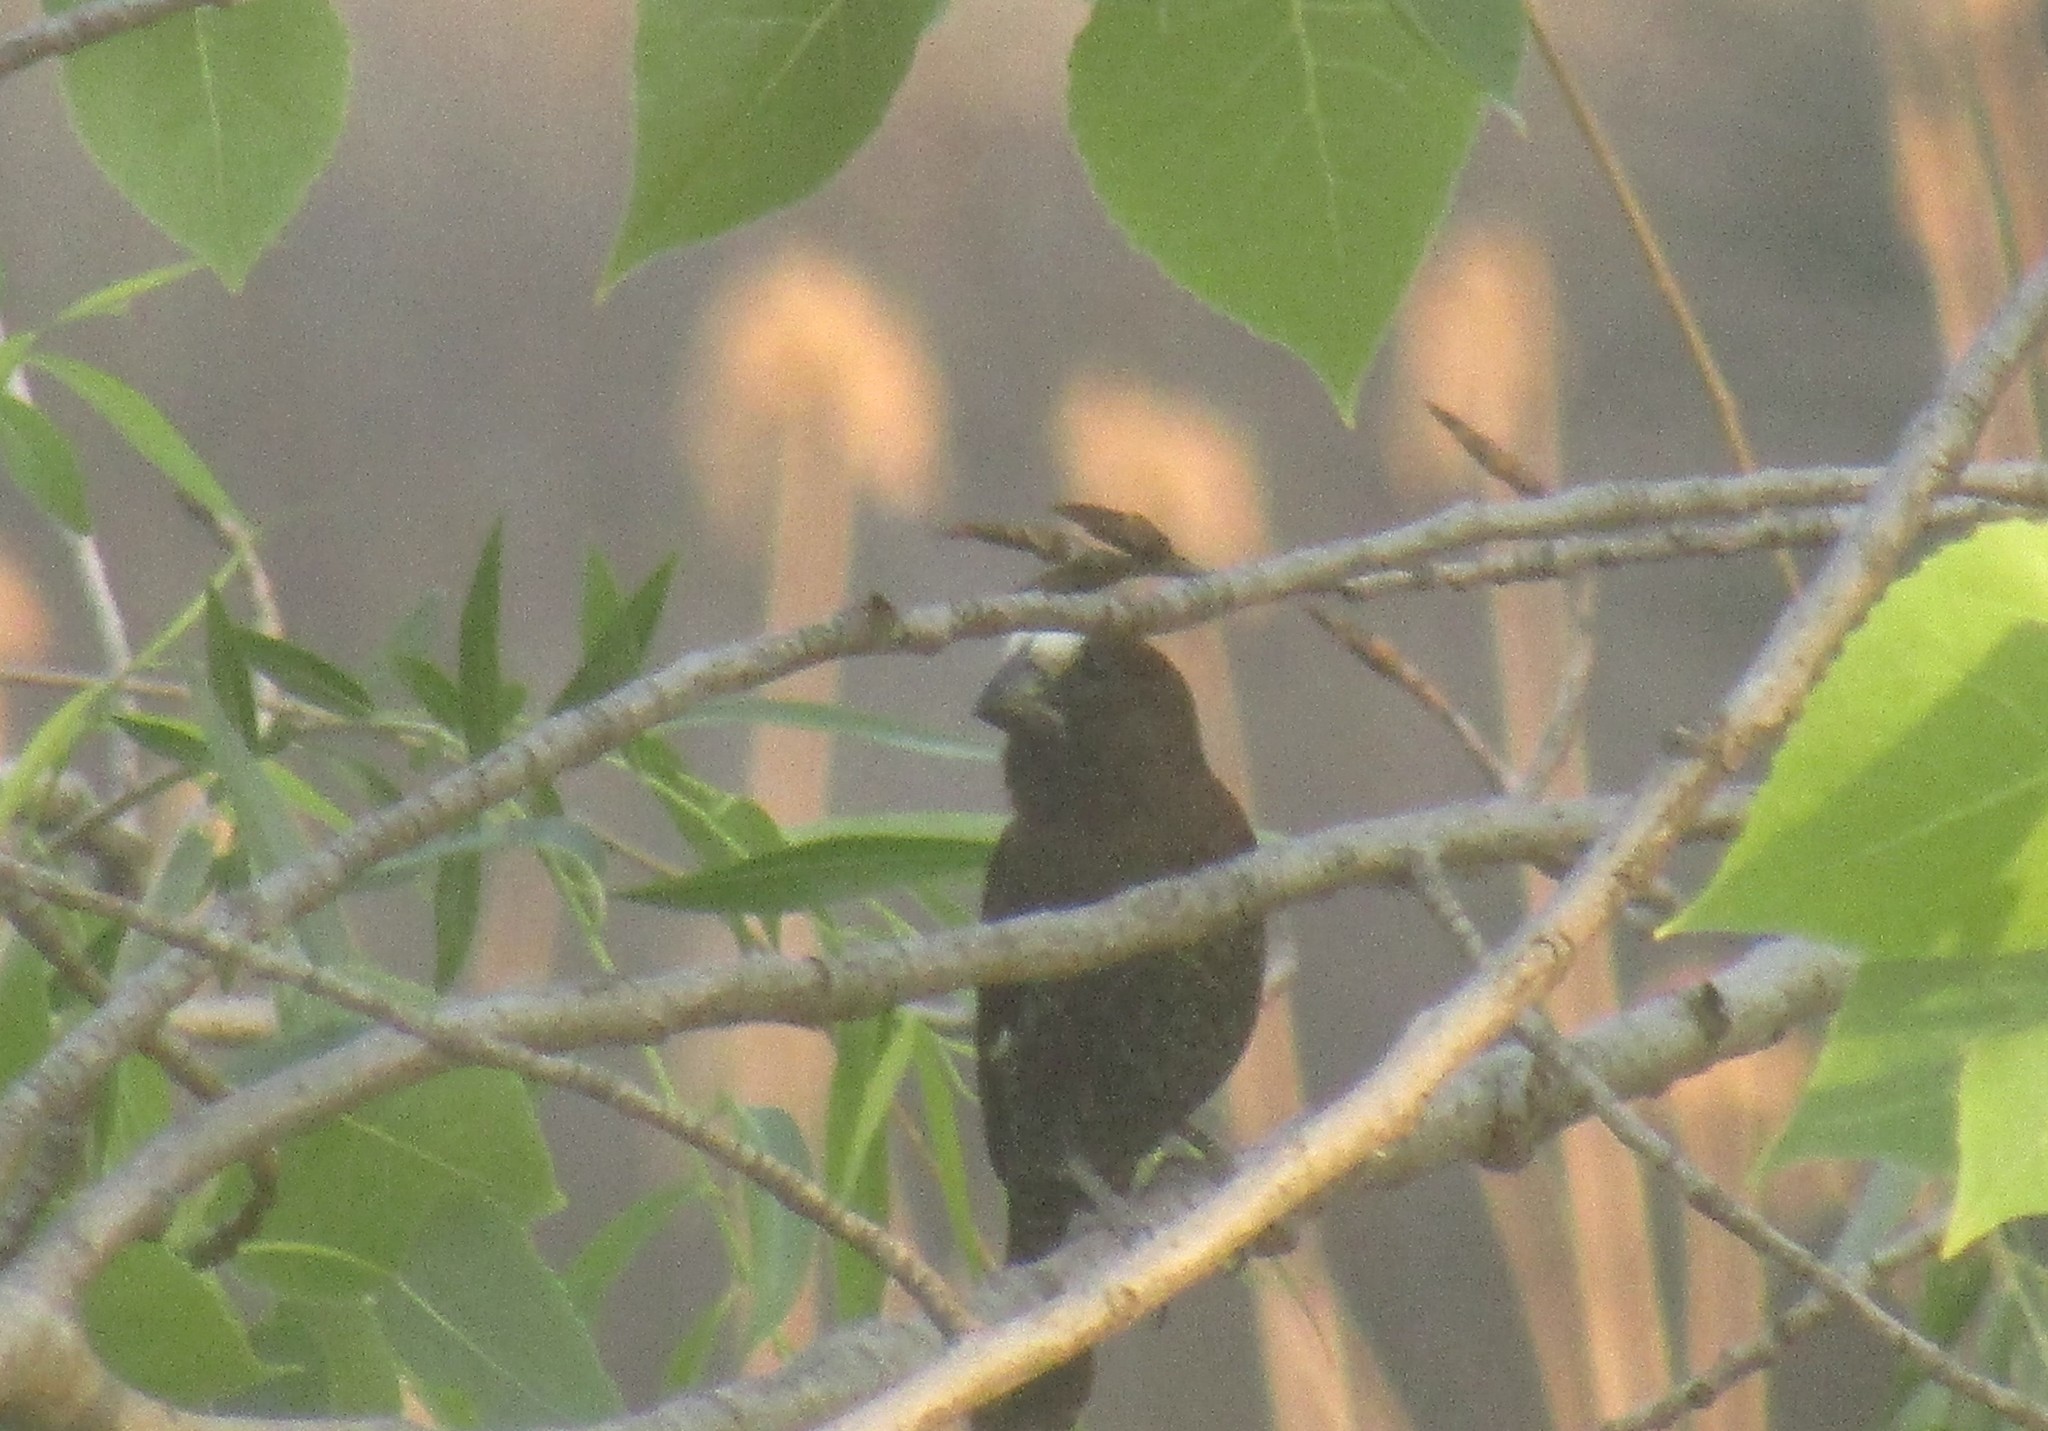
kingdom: Animalia
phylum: Chordata
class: Aves
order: Passeriformes
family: Ploceidae
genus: Amblyospiza
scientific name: Amblyospiza albifrons
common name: Thick-billed weaver
